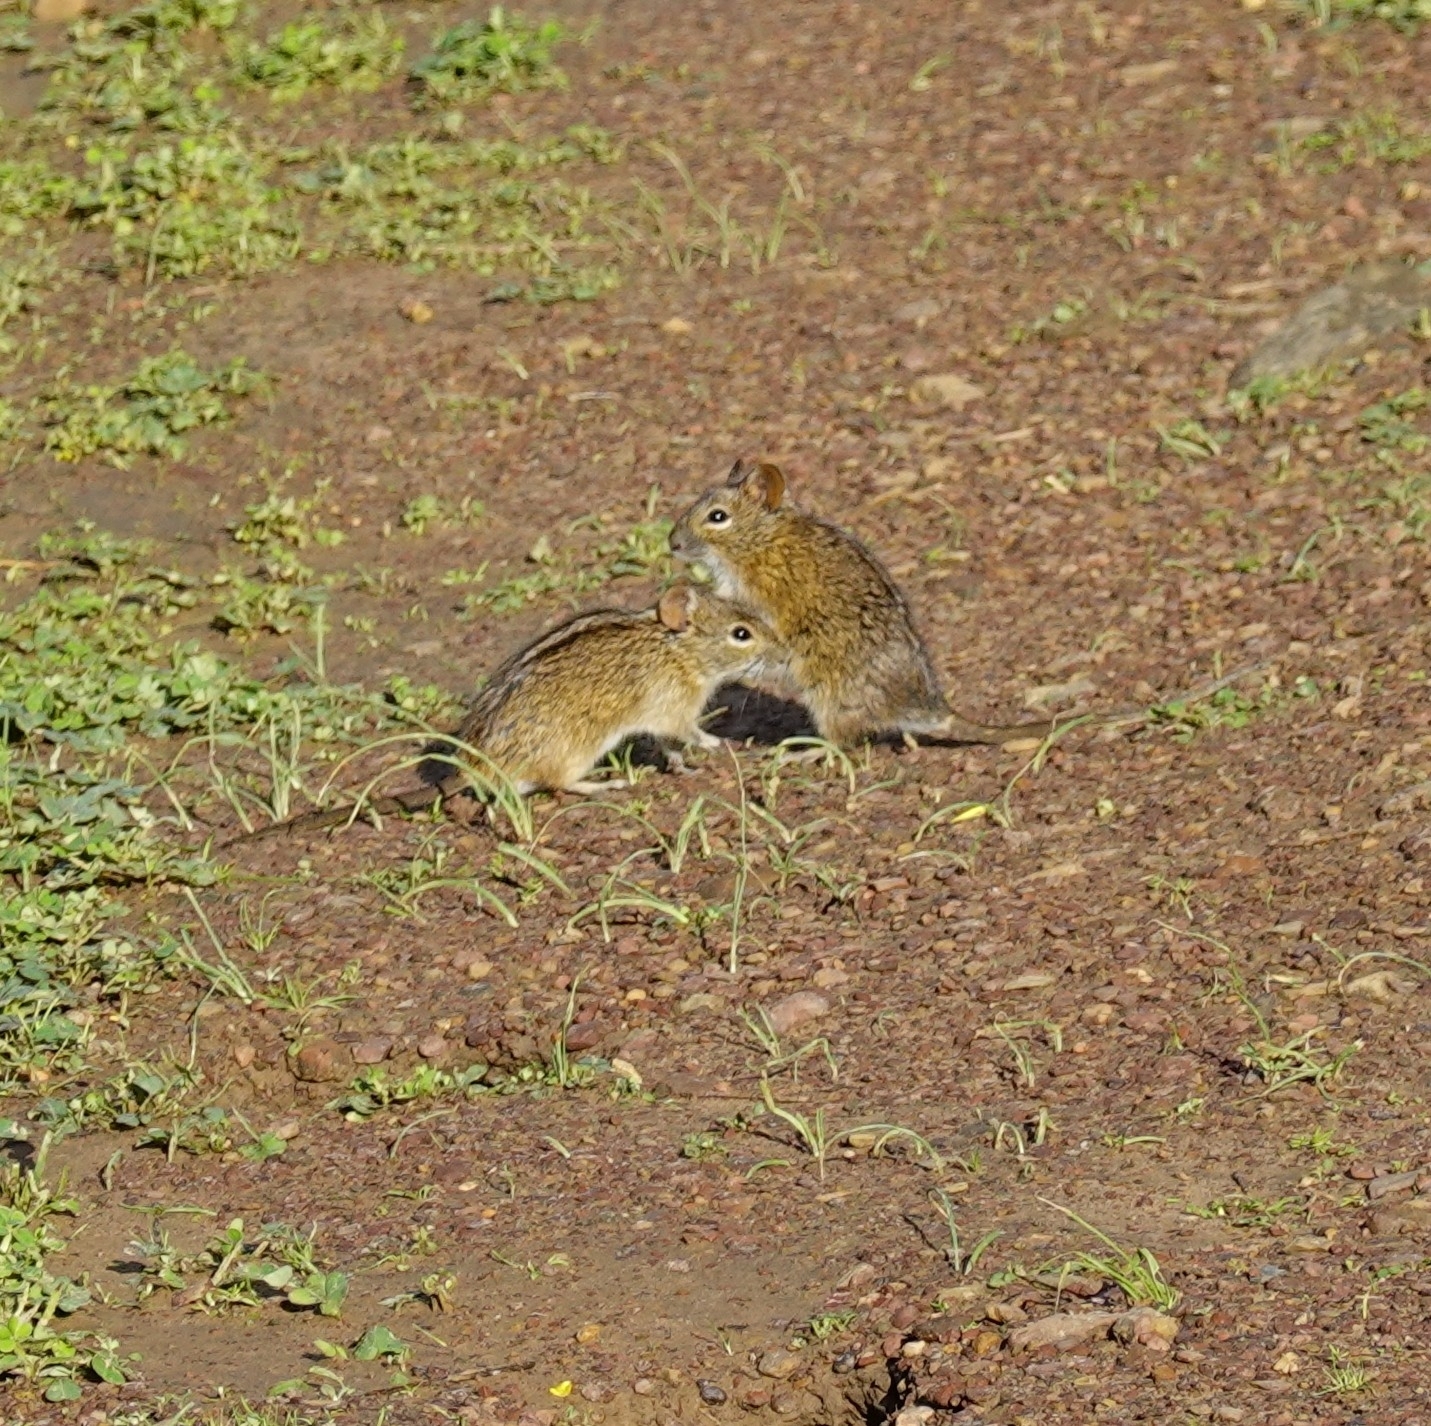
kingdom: Animalia
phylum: Chordata
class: Mammalia
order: Rodentia
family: Muridae
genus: Rhabdomys
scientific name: Rhabdomys pumilio
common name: Xeric four-striped grass rat
